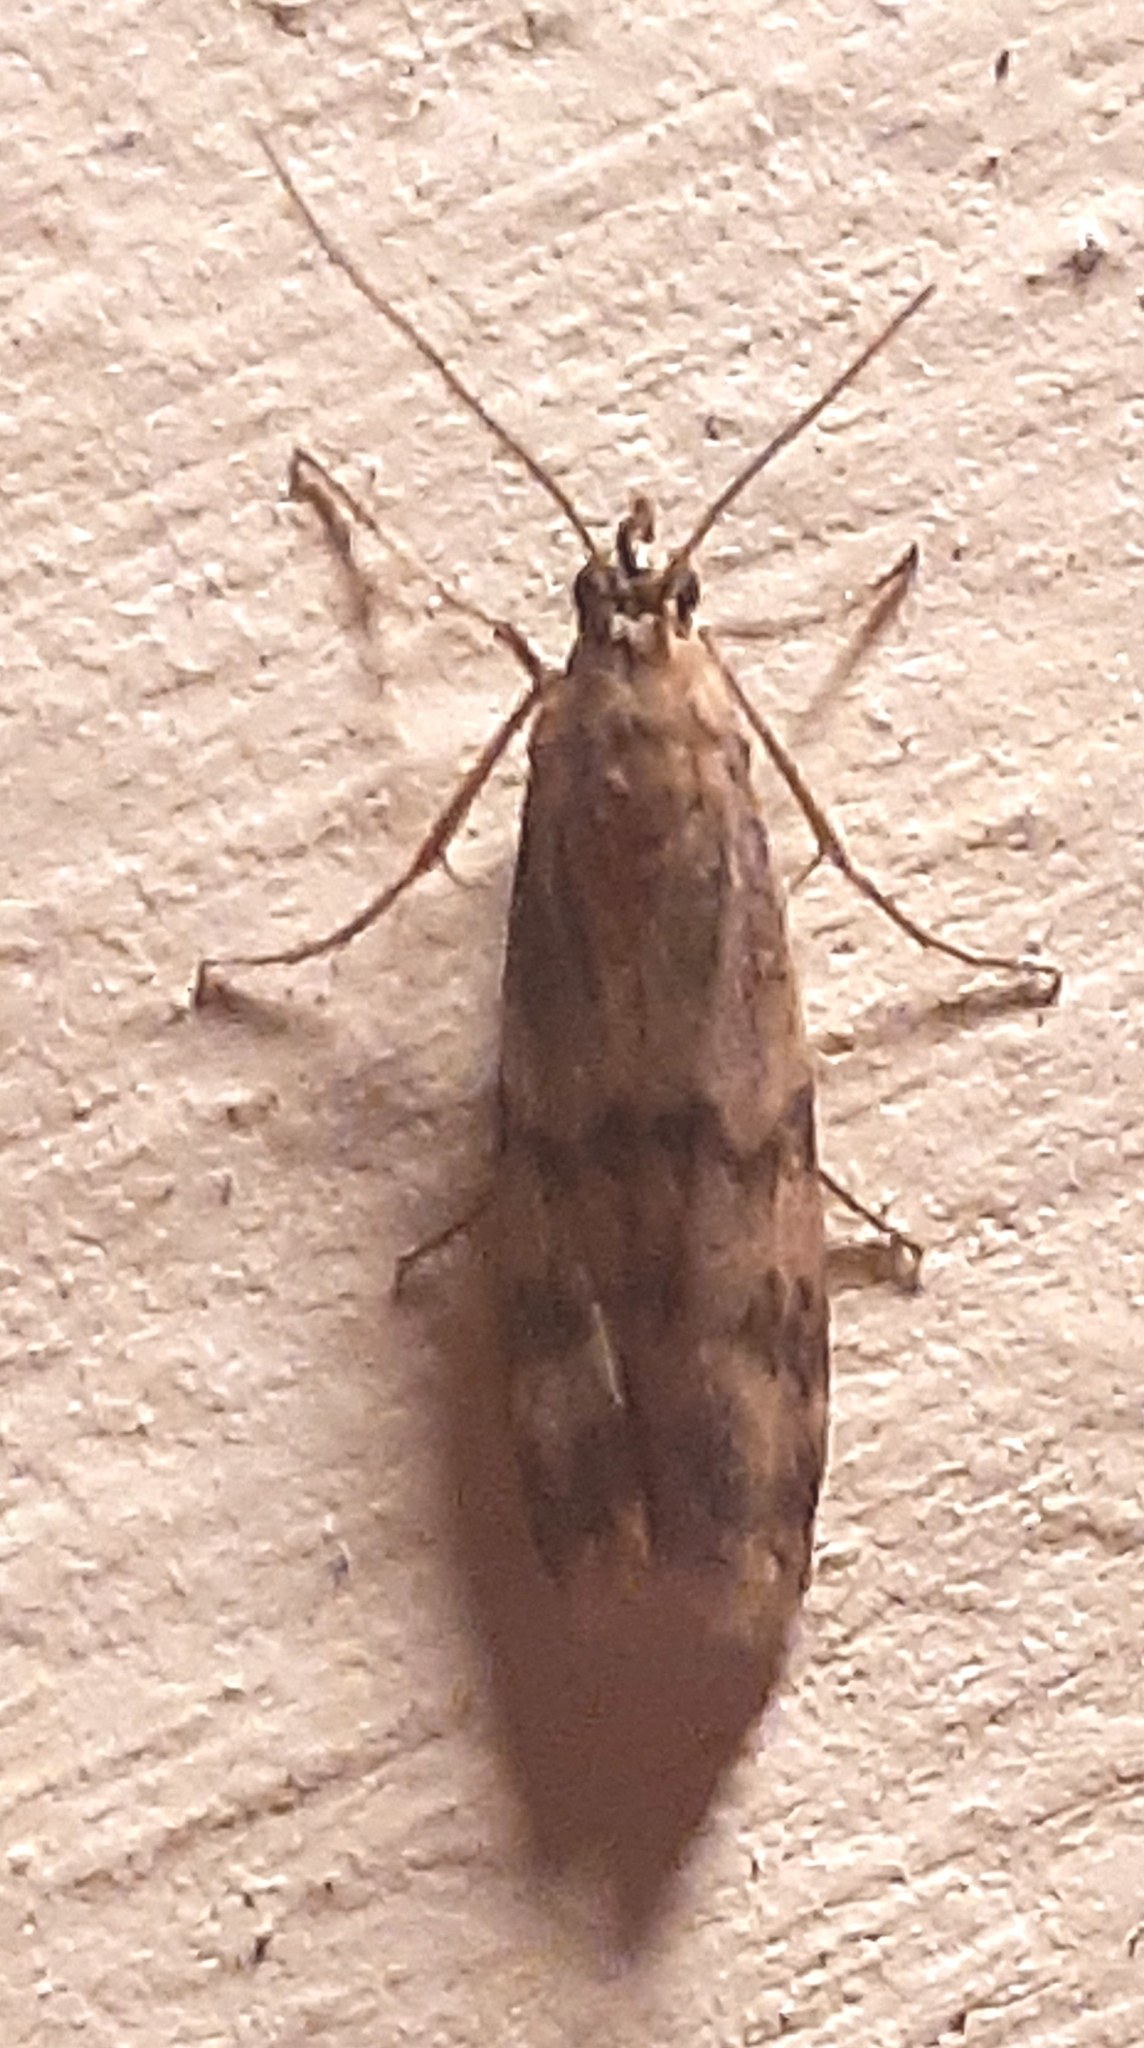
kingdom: Animalia
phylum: Arthropoda
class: Insecta
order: Lepidoptera
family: Pyralidae
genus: Homoeosoma
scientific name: Homoeosoma sinuella
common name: Twin-barred knot-horn
